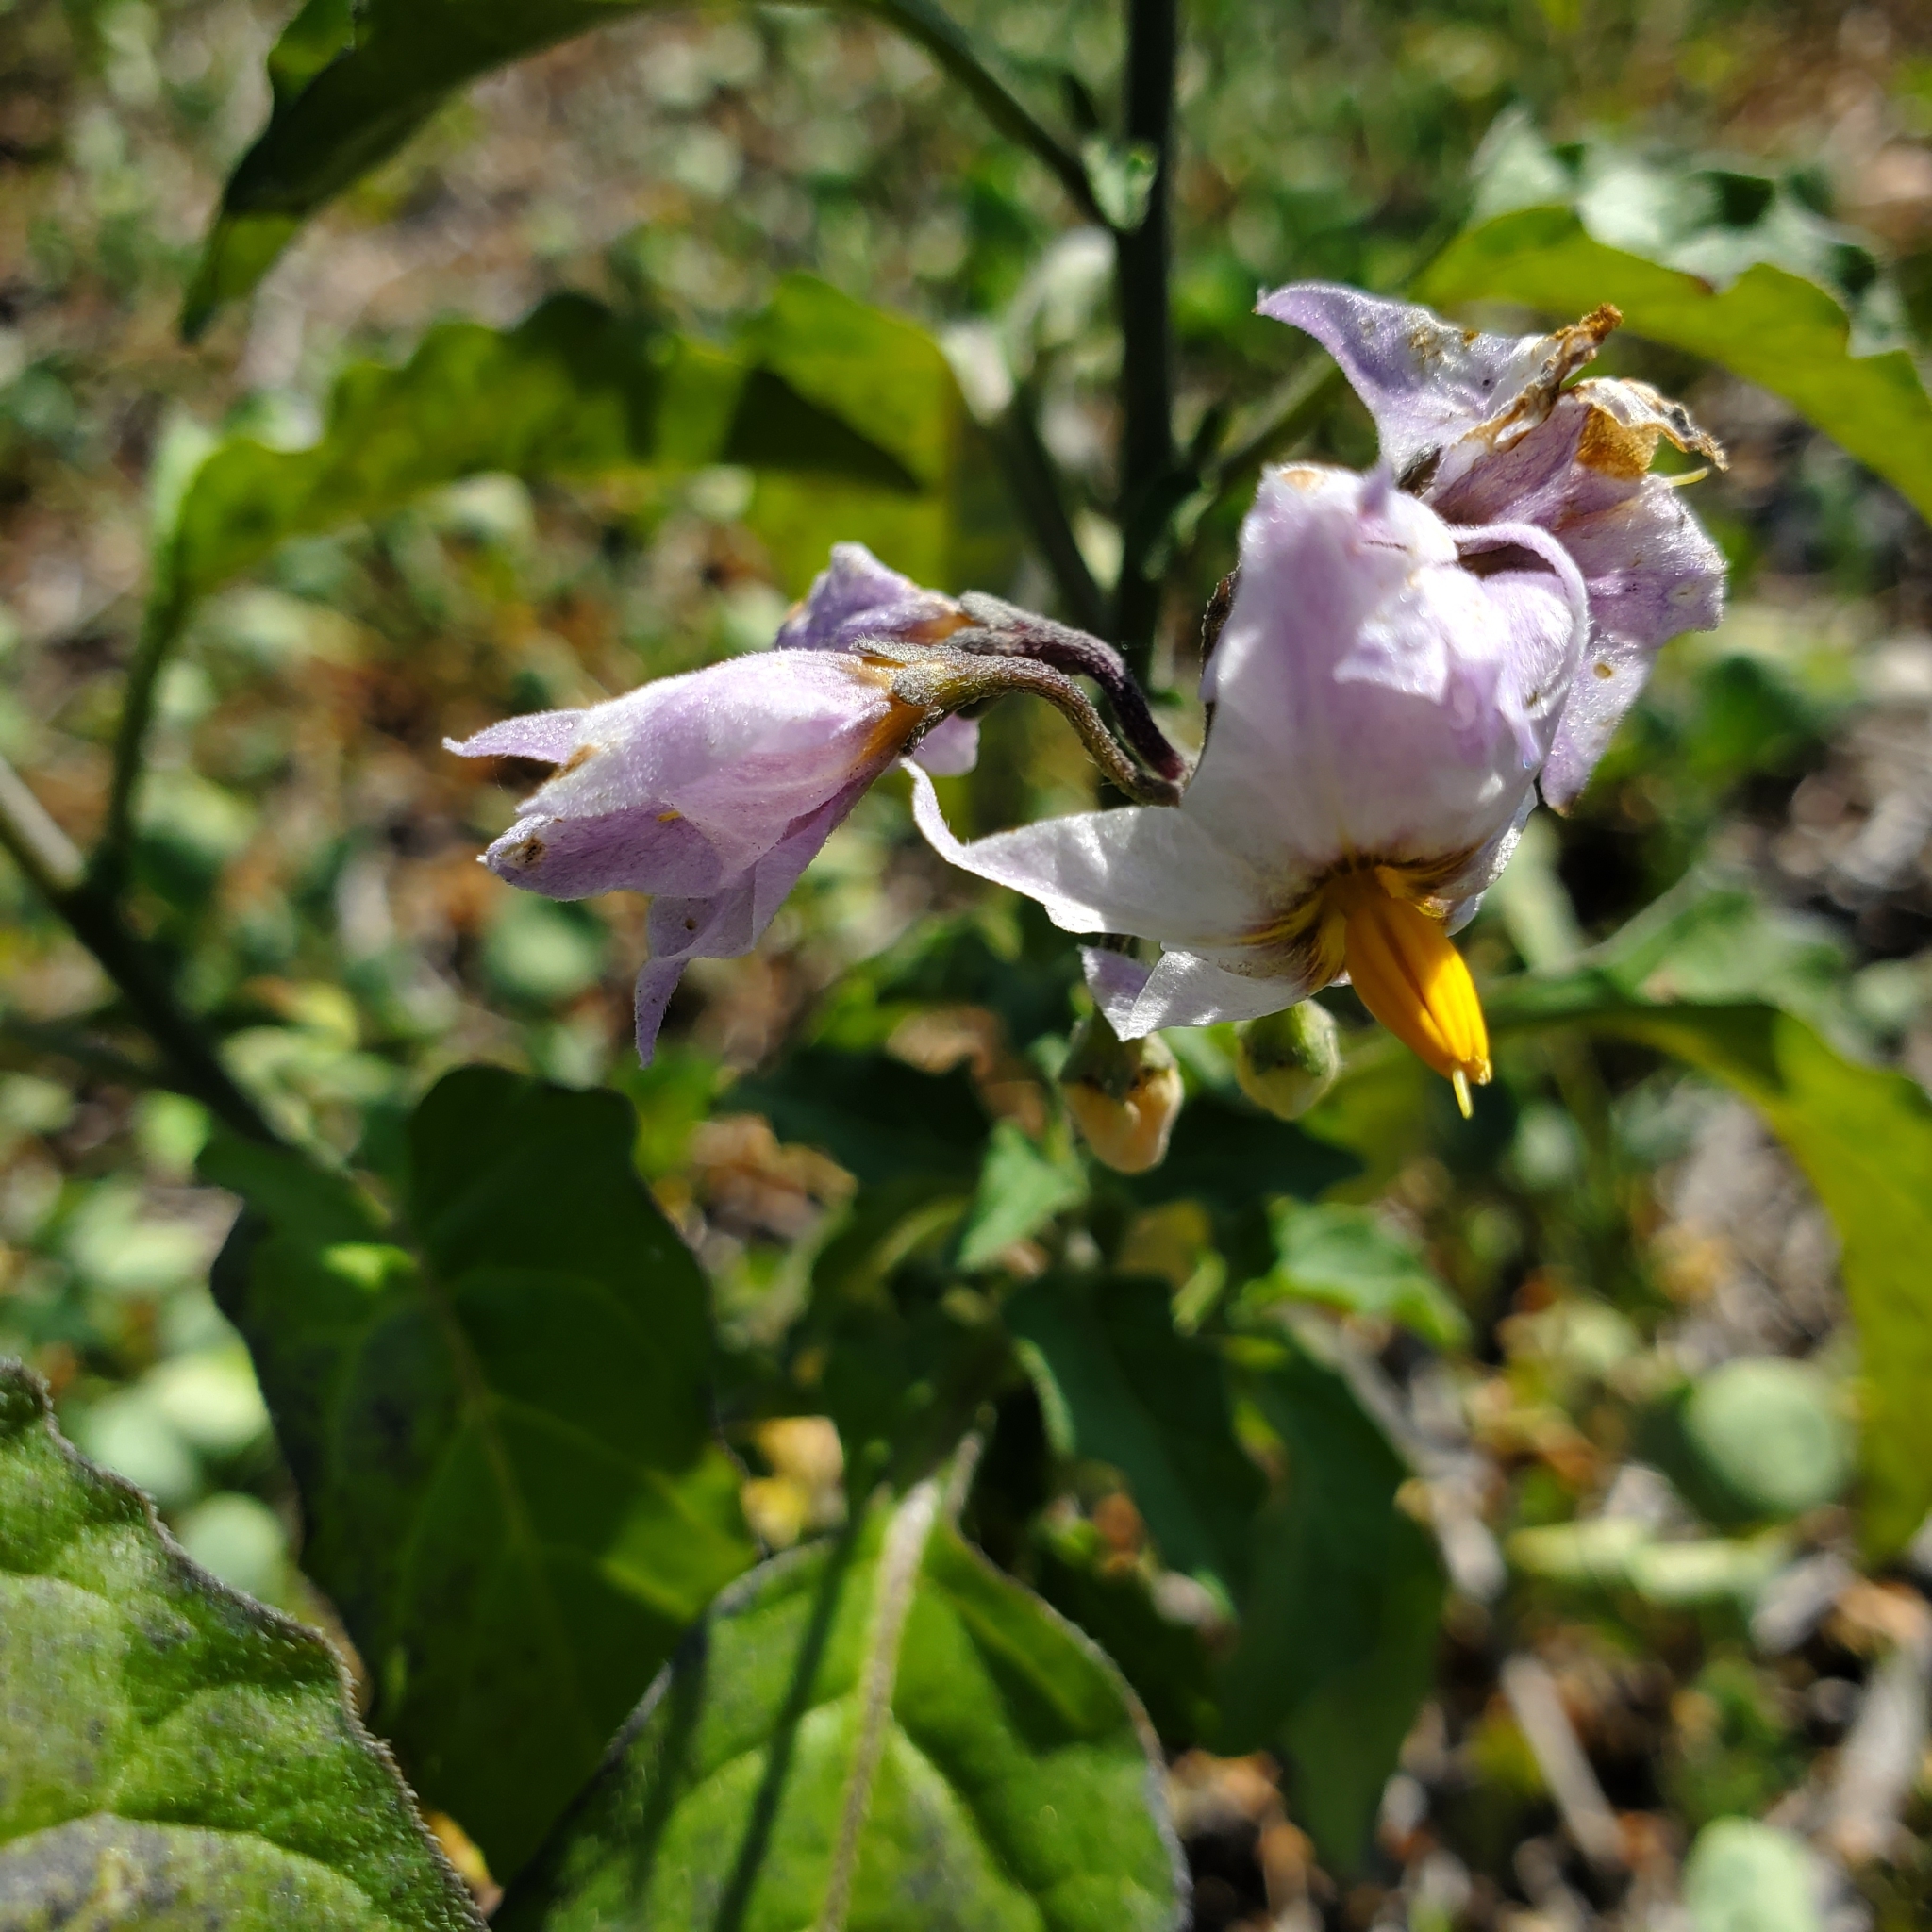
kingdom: Plantae
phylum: Tracheophyta
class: Magnoliopsida
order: Solanales
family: Solanaceae
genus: Solanum
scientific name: Solanum douglasii
